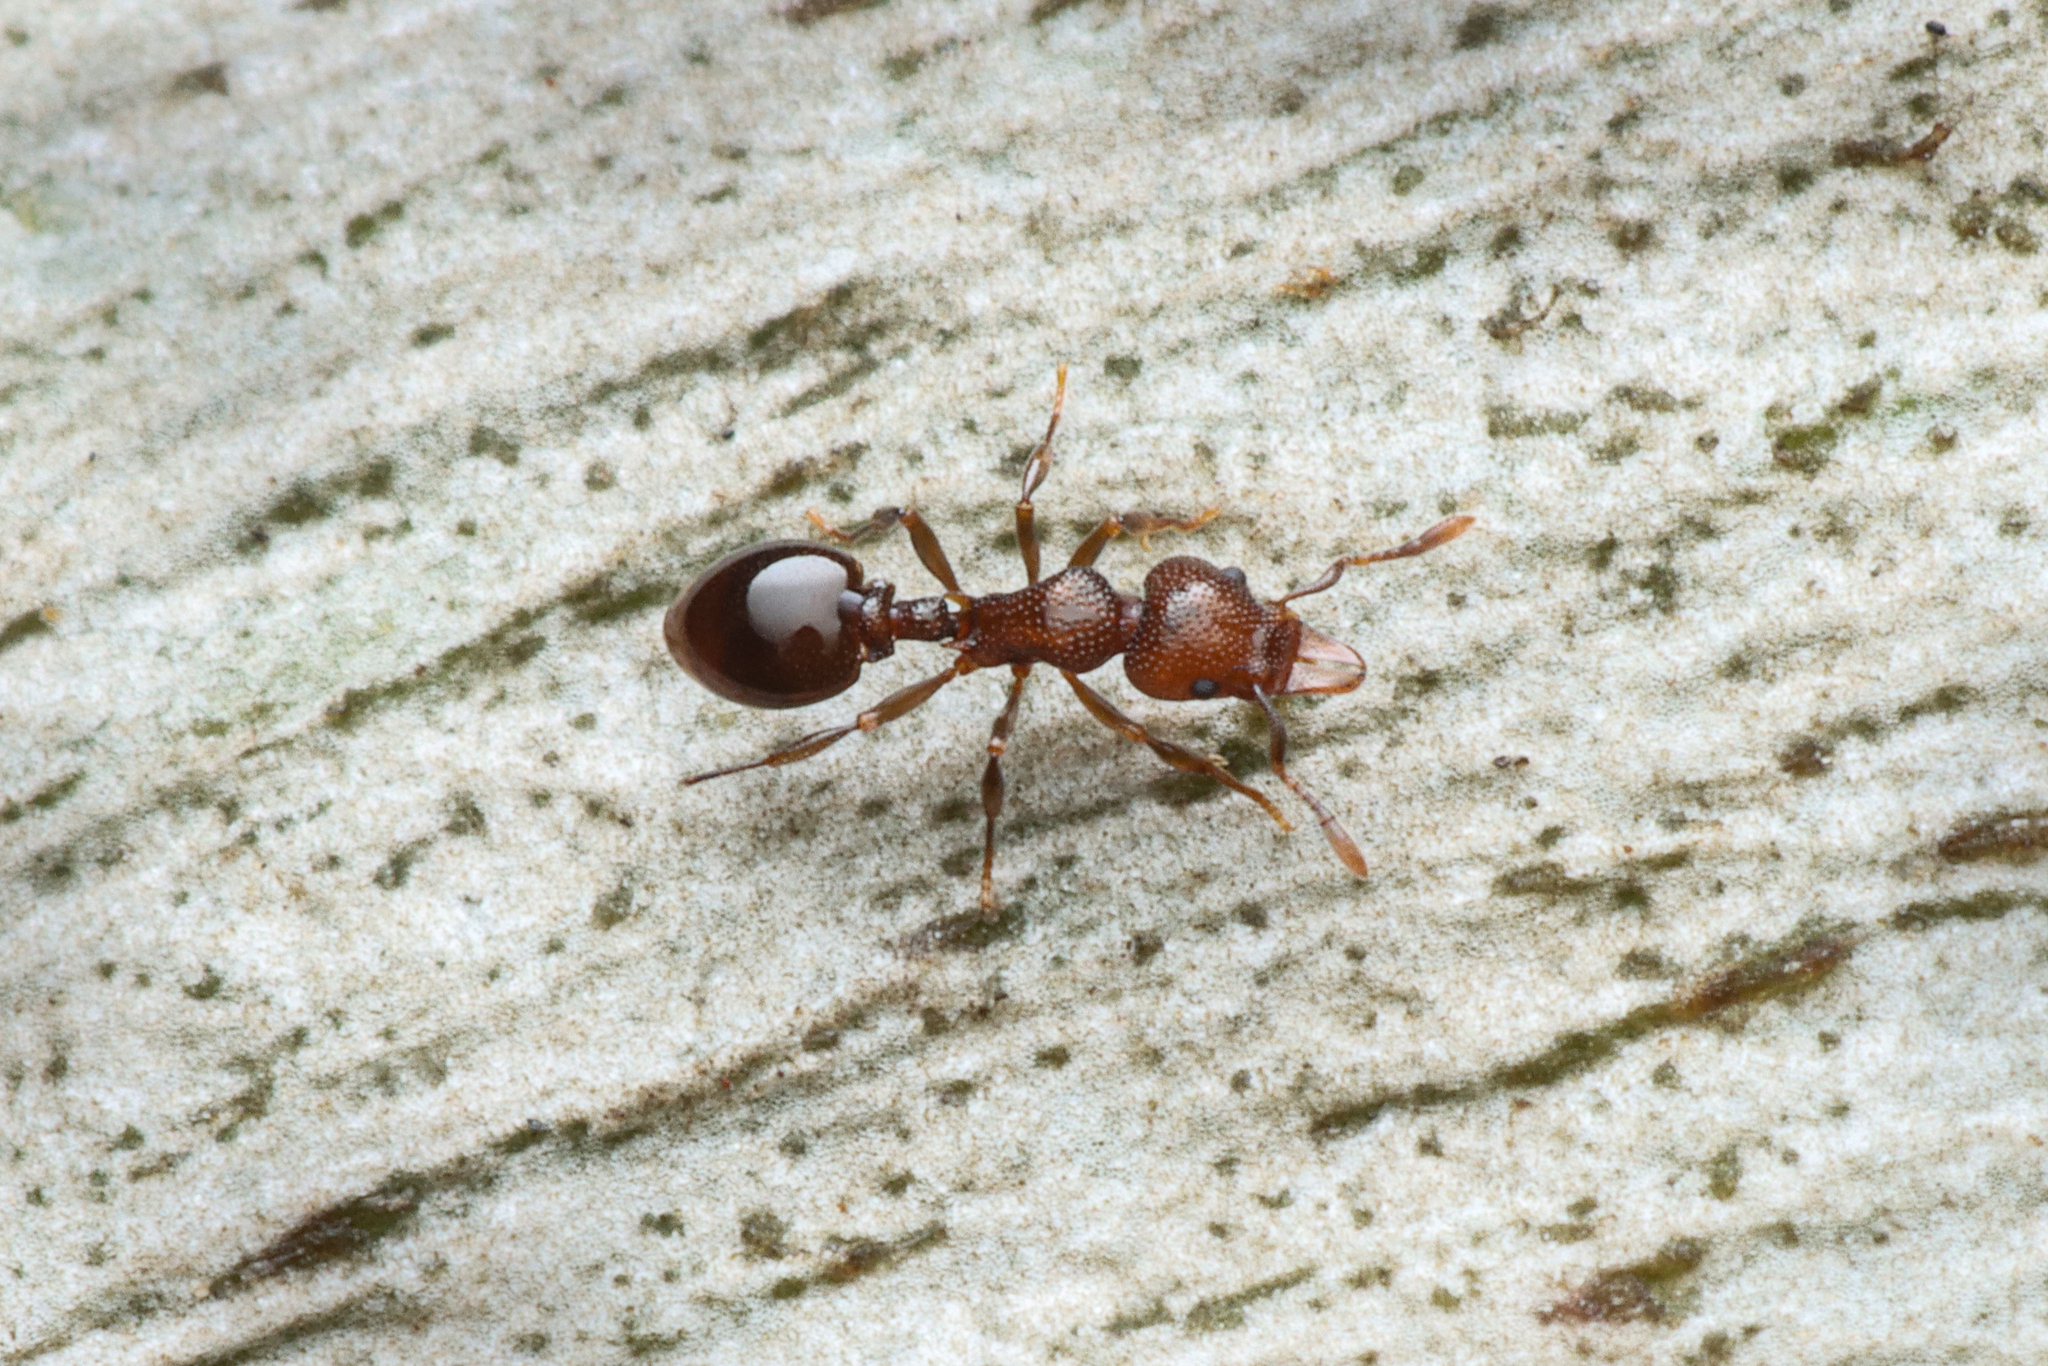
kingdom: Animalia
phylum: Arthropoda
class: Insecta
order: Hymenoptera
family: Formicidae
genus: Mesostruma
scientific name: Mesostruma exolympica
